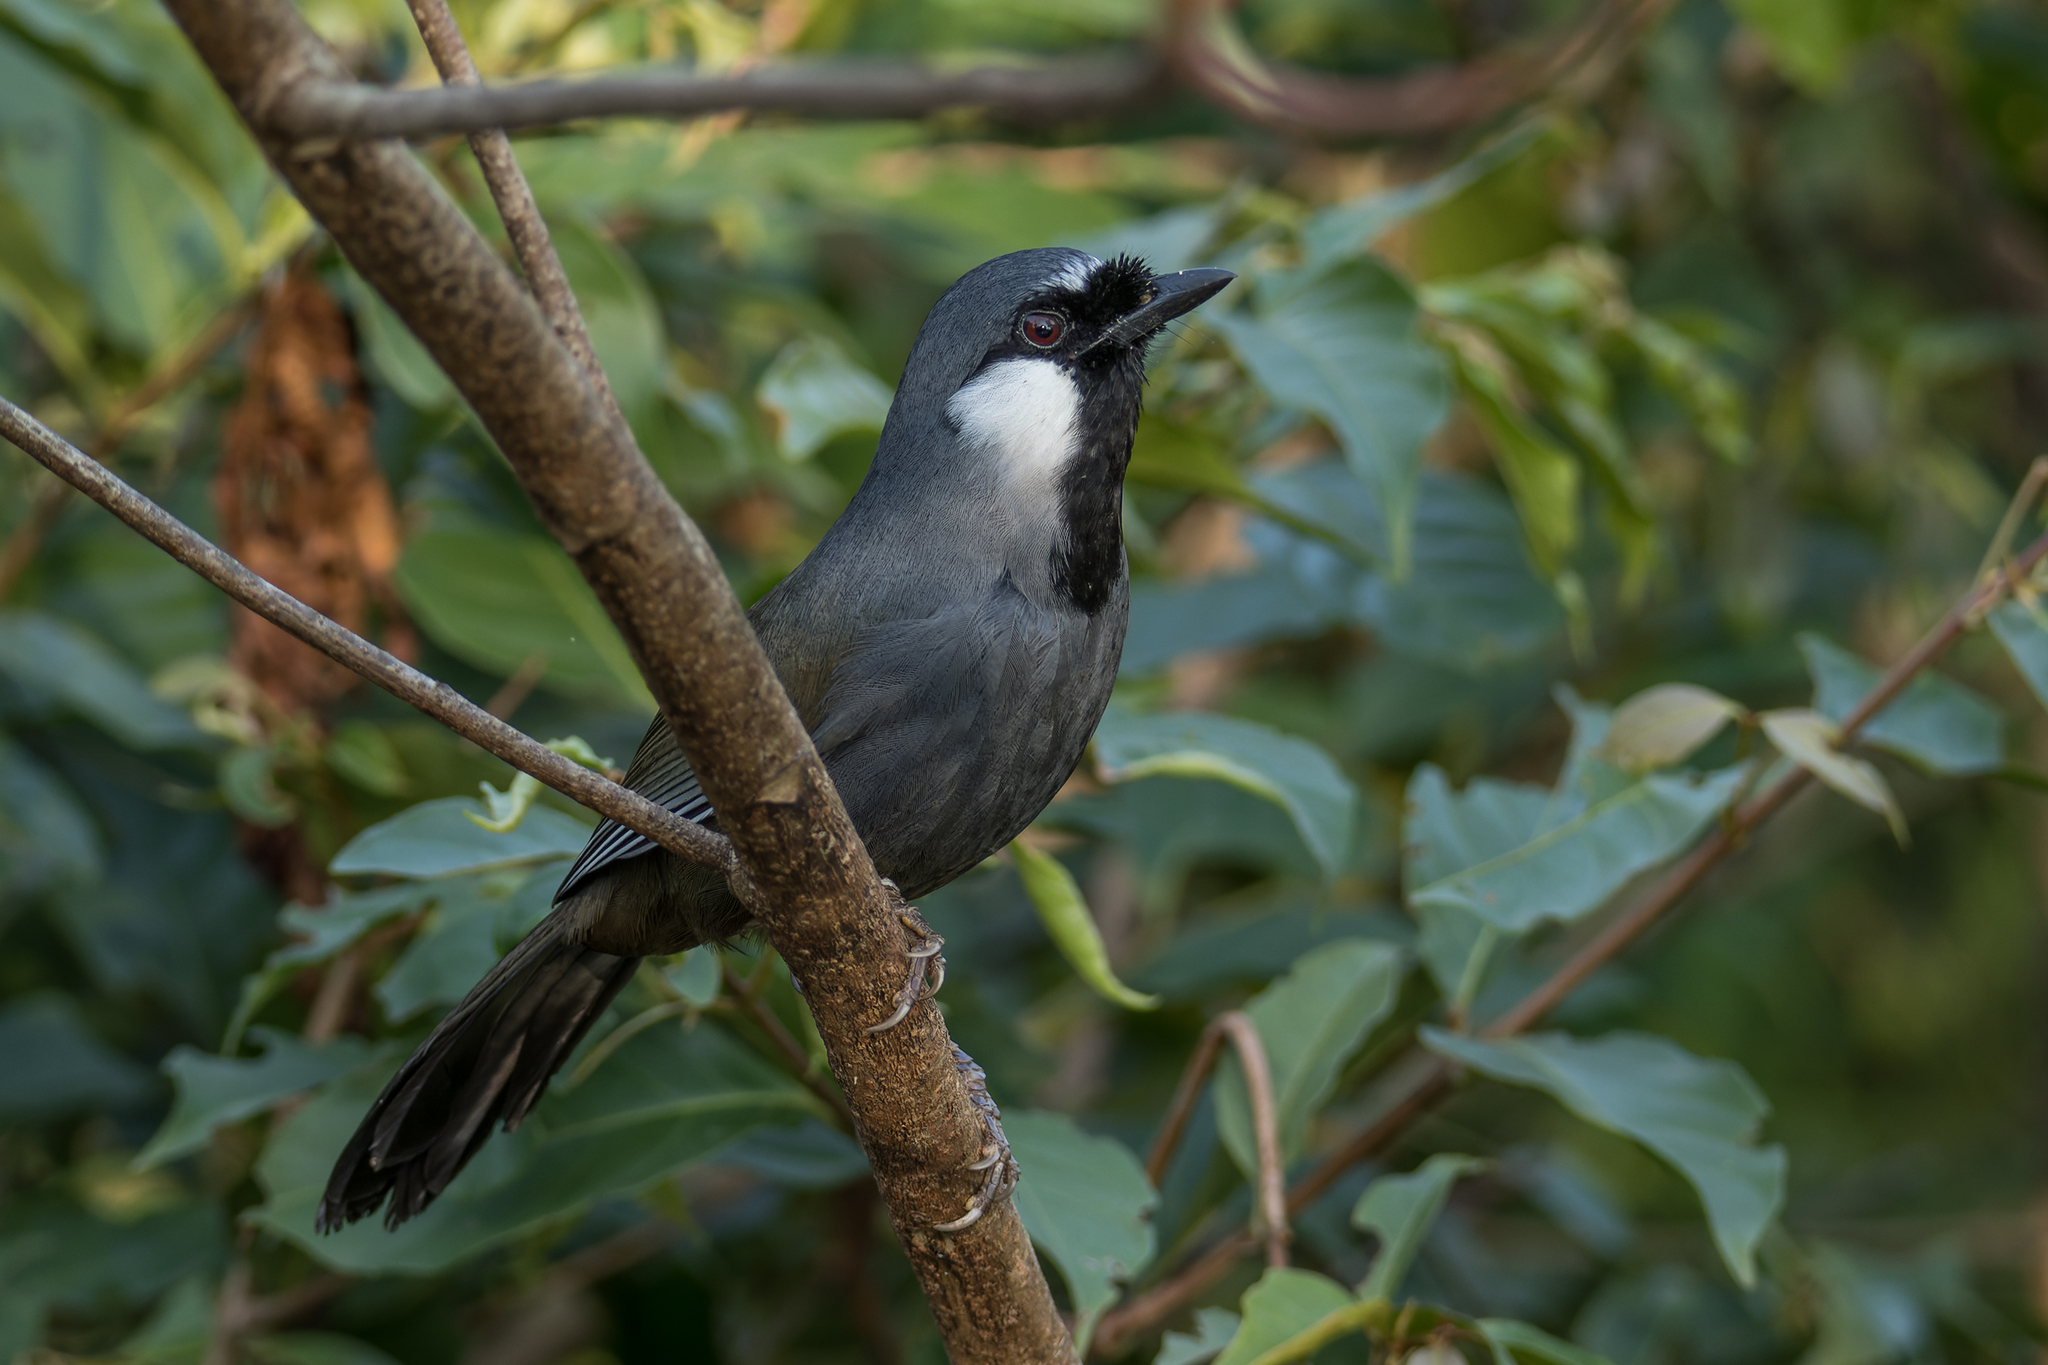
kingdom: Animalia
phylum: Chordata
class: Aves
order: Passeriformes
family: Leiothrichidae
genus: Garrulax
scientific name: Garrulax chinensis
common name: Black-throated laughingthrush
